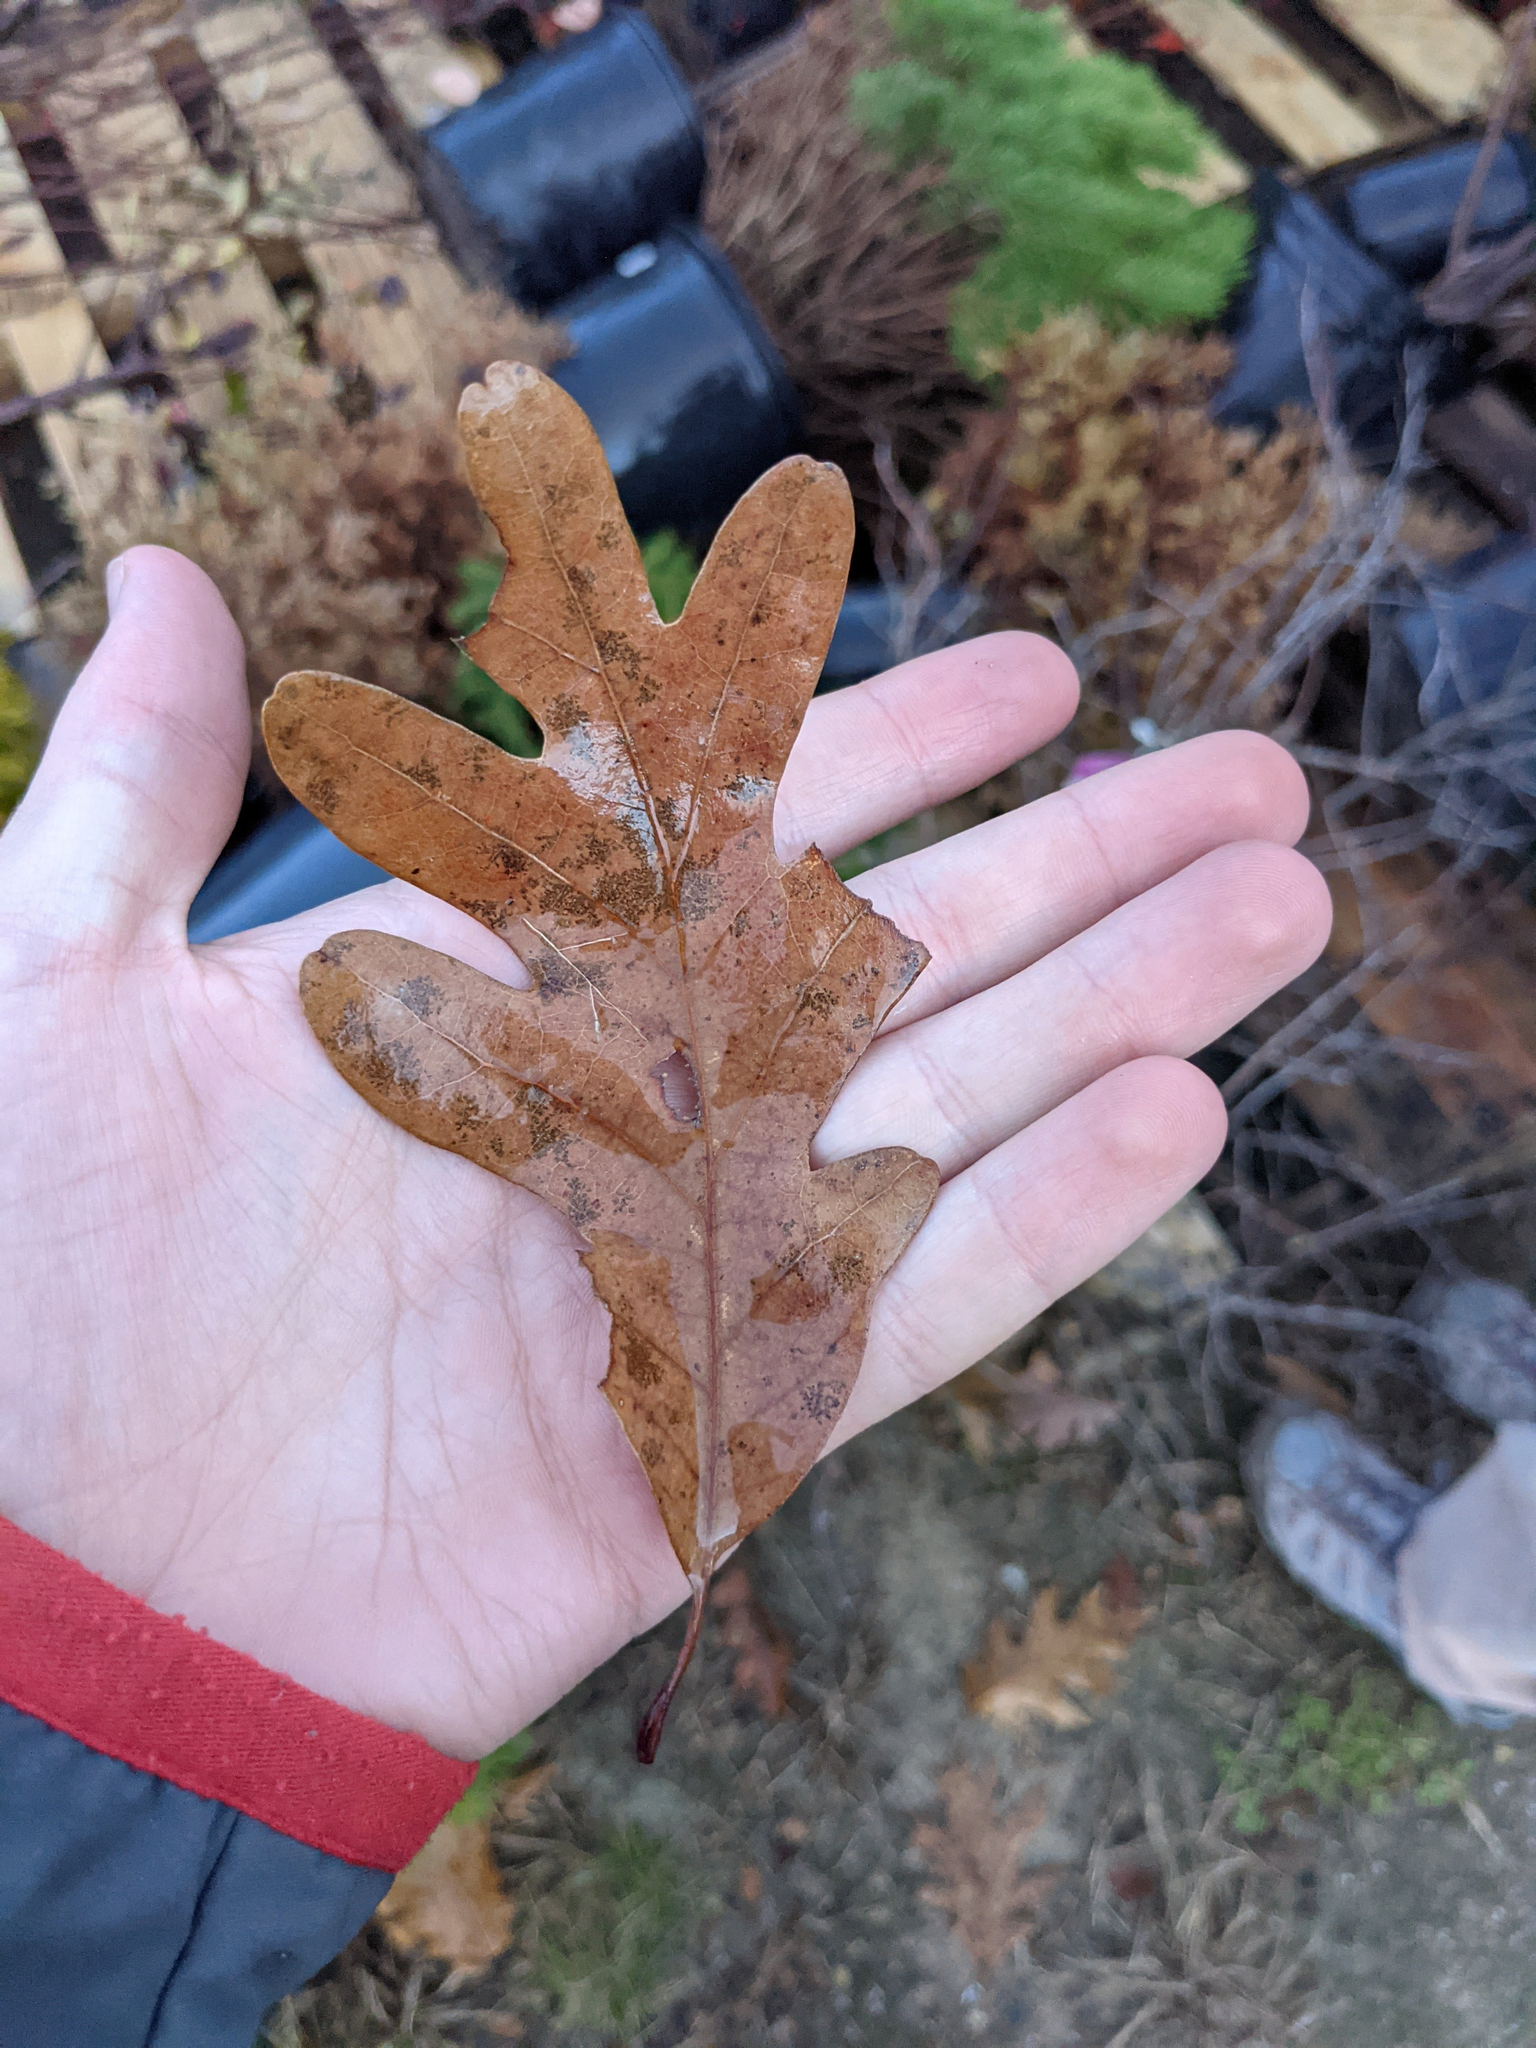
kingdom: Plantae
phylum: Tracheophyta
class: Magnoliopsida
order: Fagales
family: Fagaceae
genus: Quercus
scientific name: Quercus alba
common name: White oak
